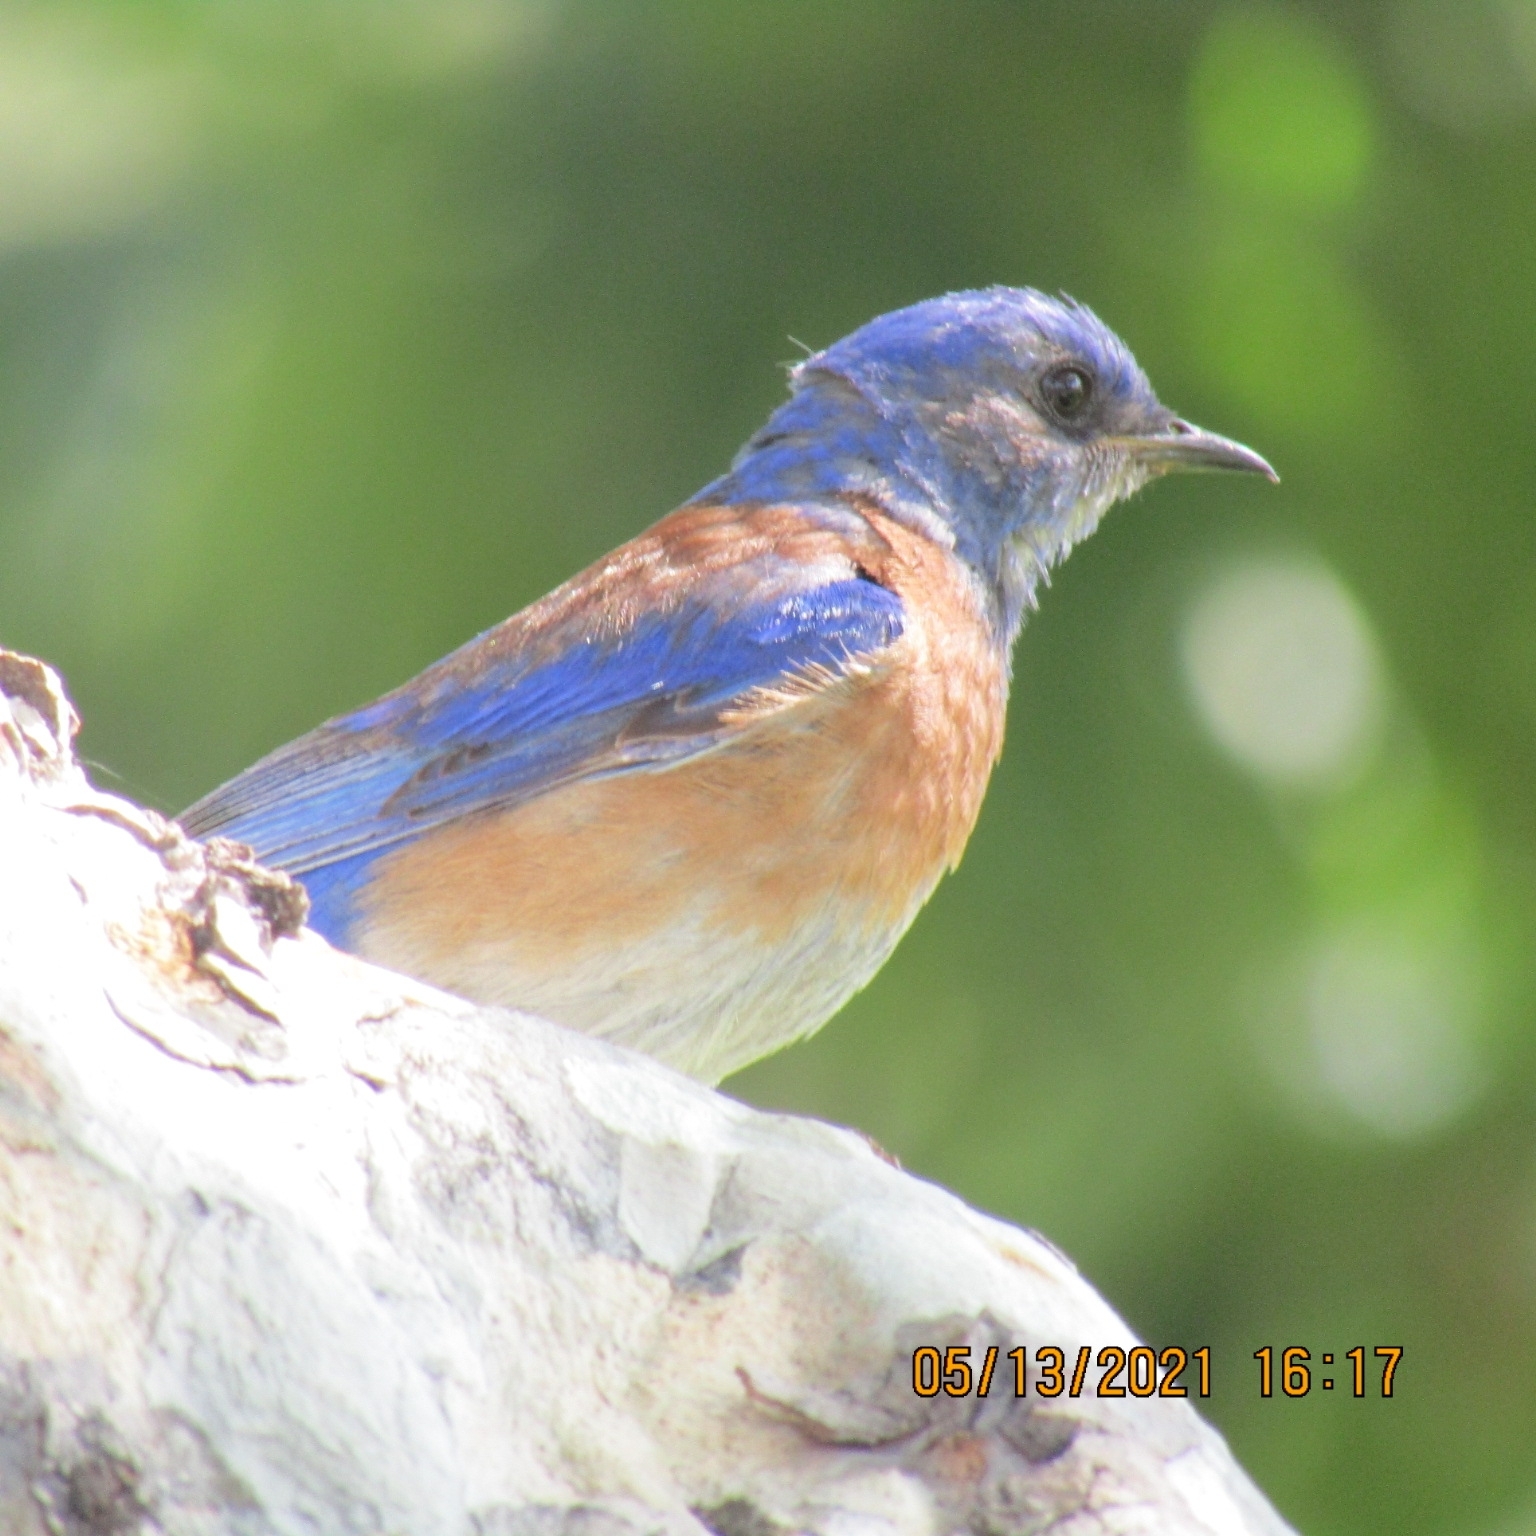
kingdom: Animalia
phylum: Chordata
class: Aves
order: Passeriformes
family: Turdidae
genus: Sialia
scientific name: Sialia mexicana
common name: Western bluebird
